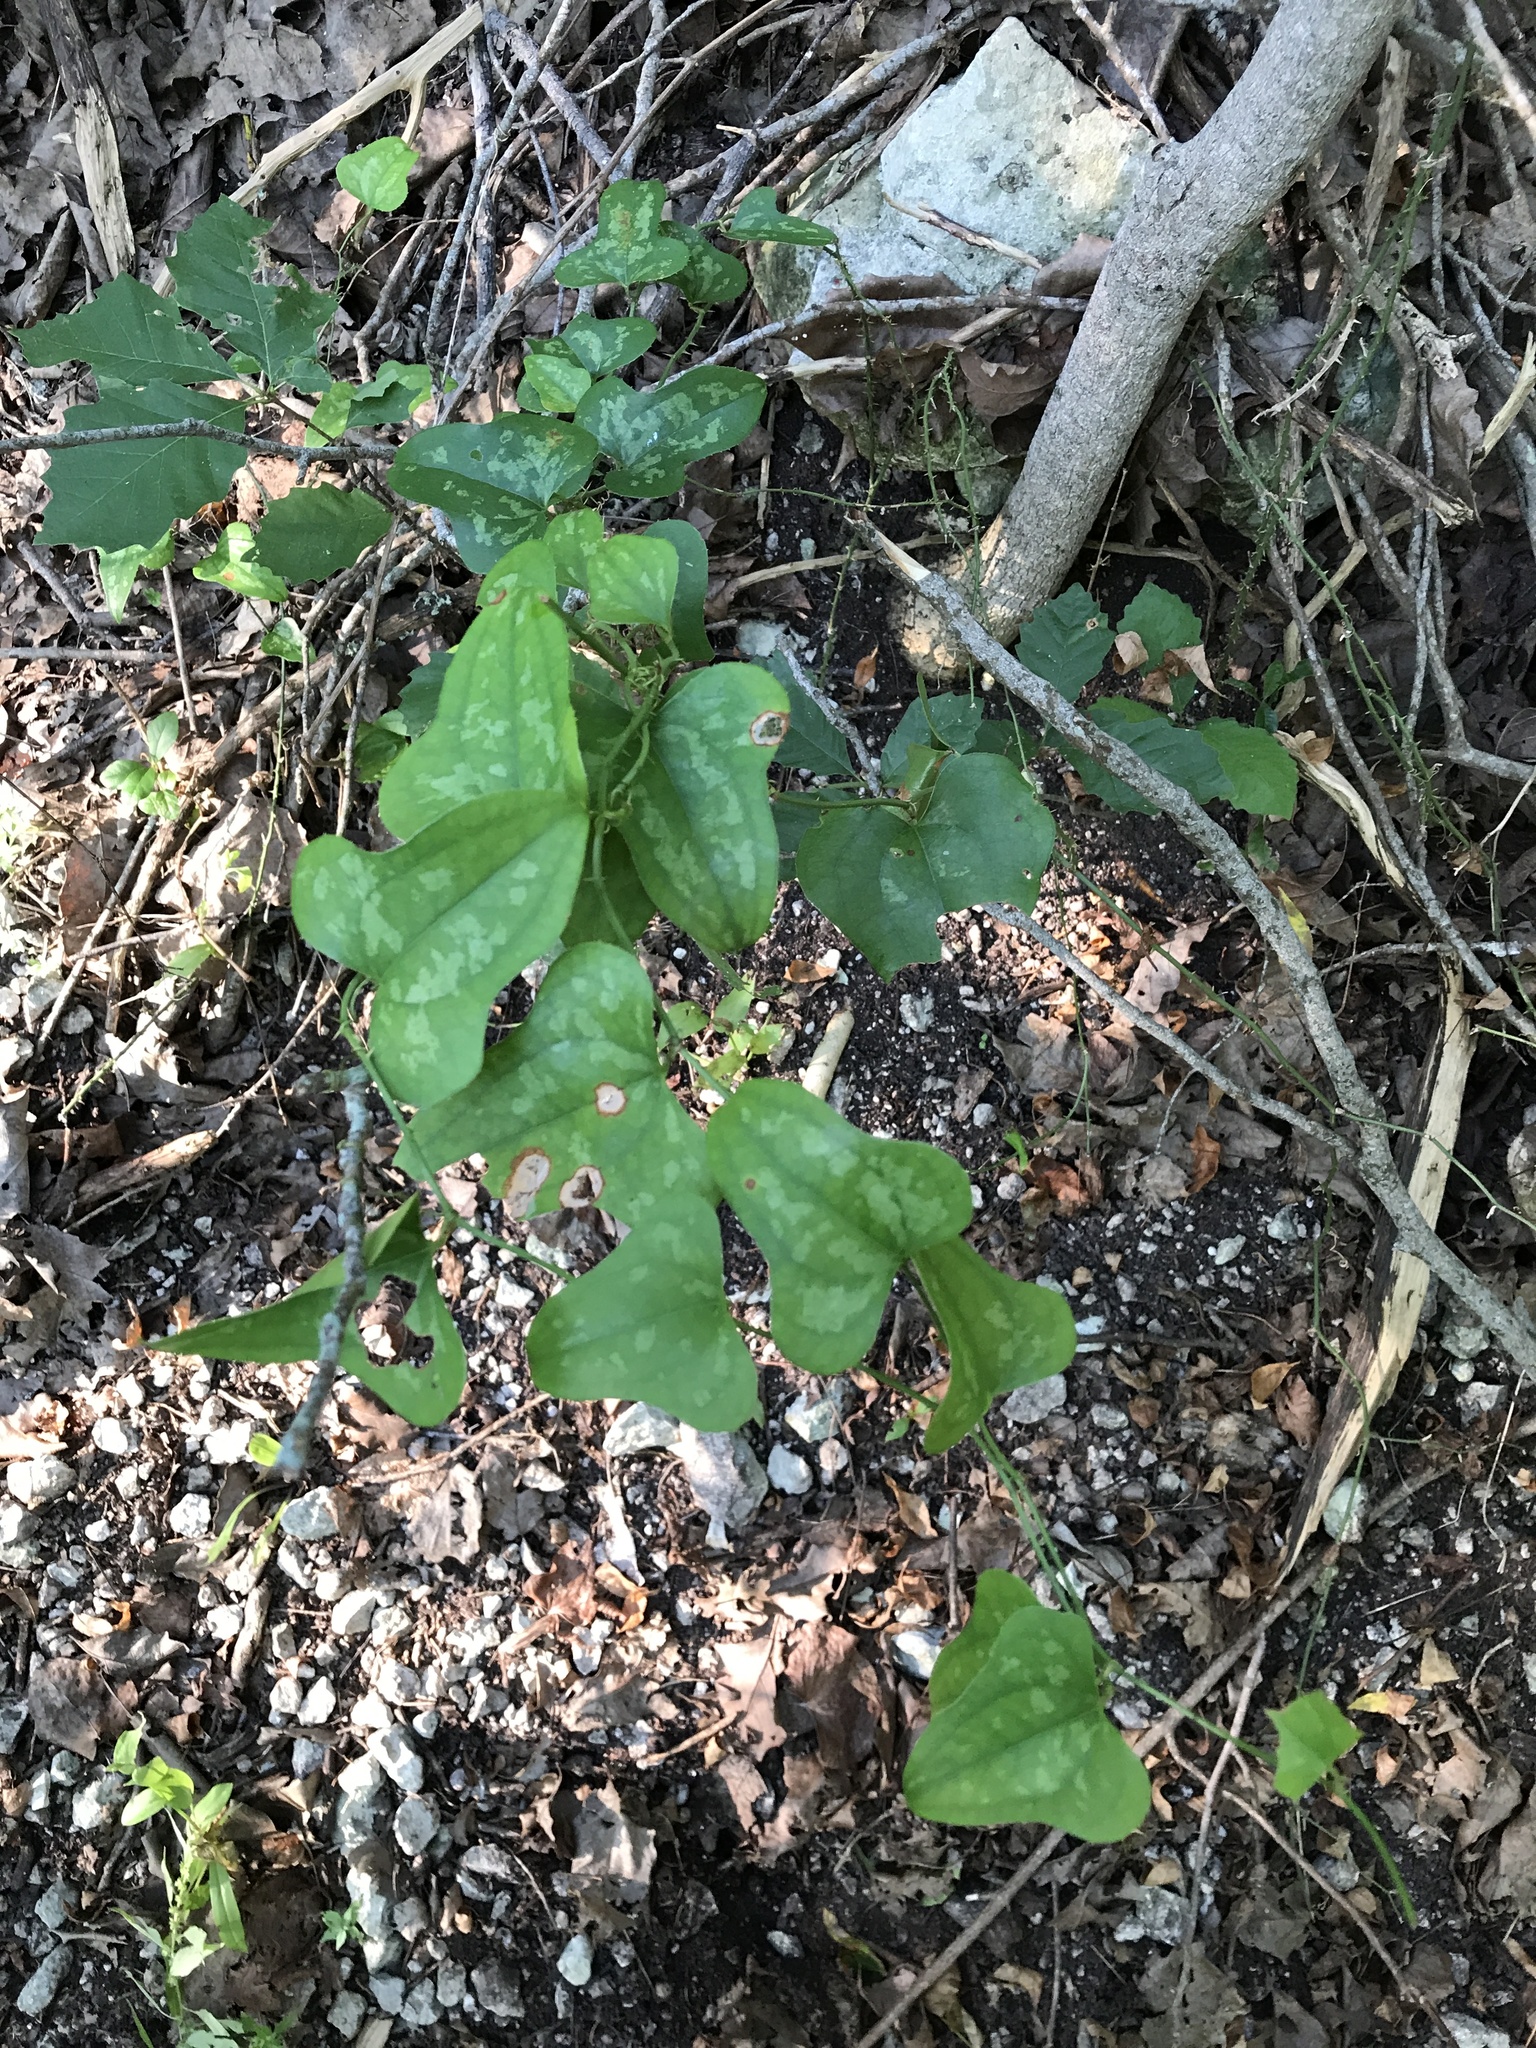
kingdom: Plantae
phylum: Tracheophyta
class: Liliopsida
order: Liliales
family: Smilacaceae
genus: Smilax
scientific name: Smilax bona-nox
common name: Catbrier
